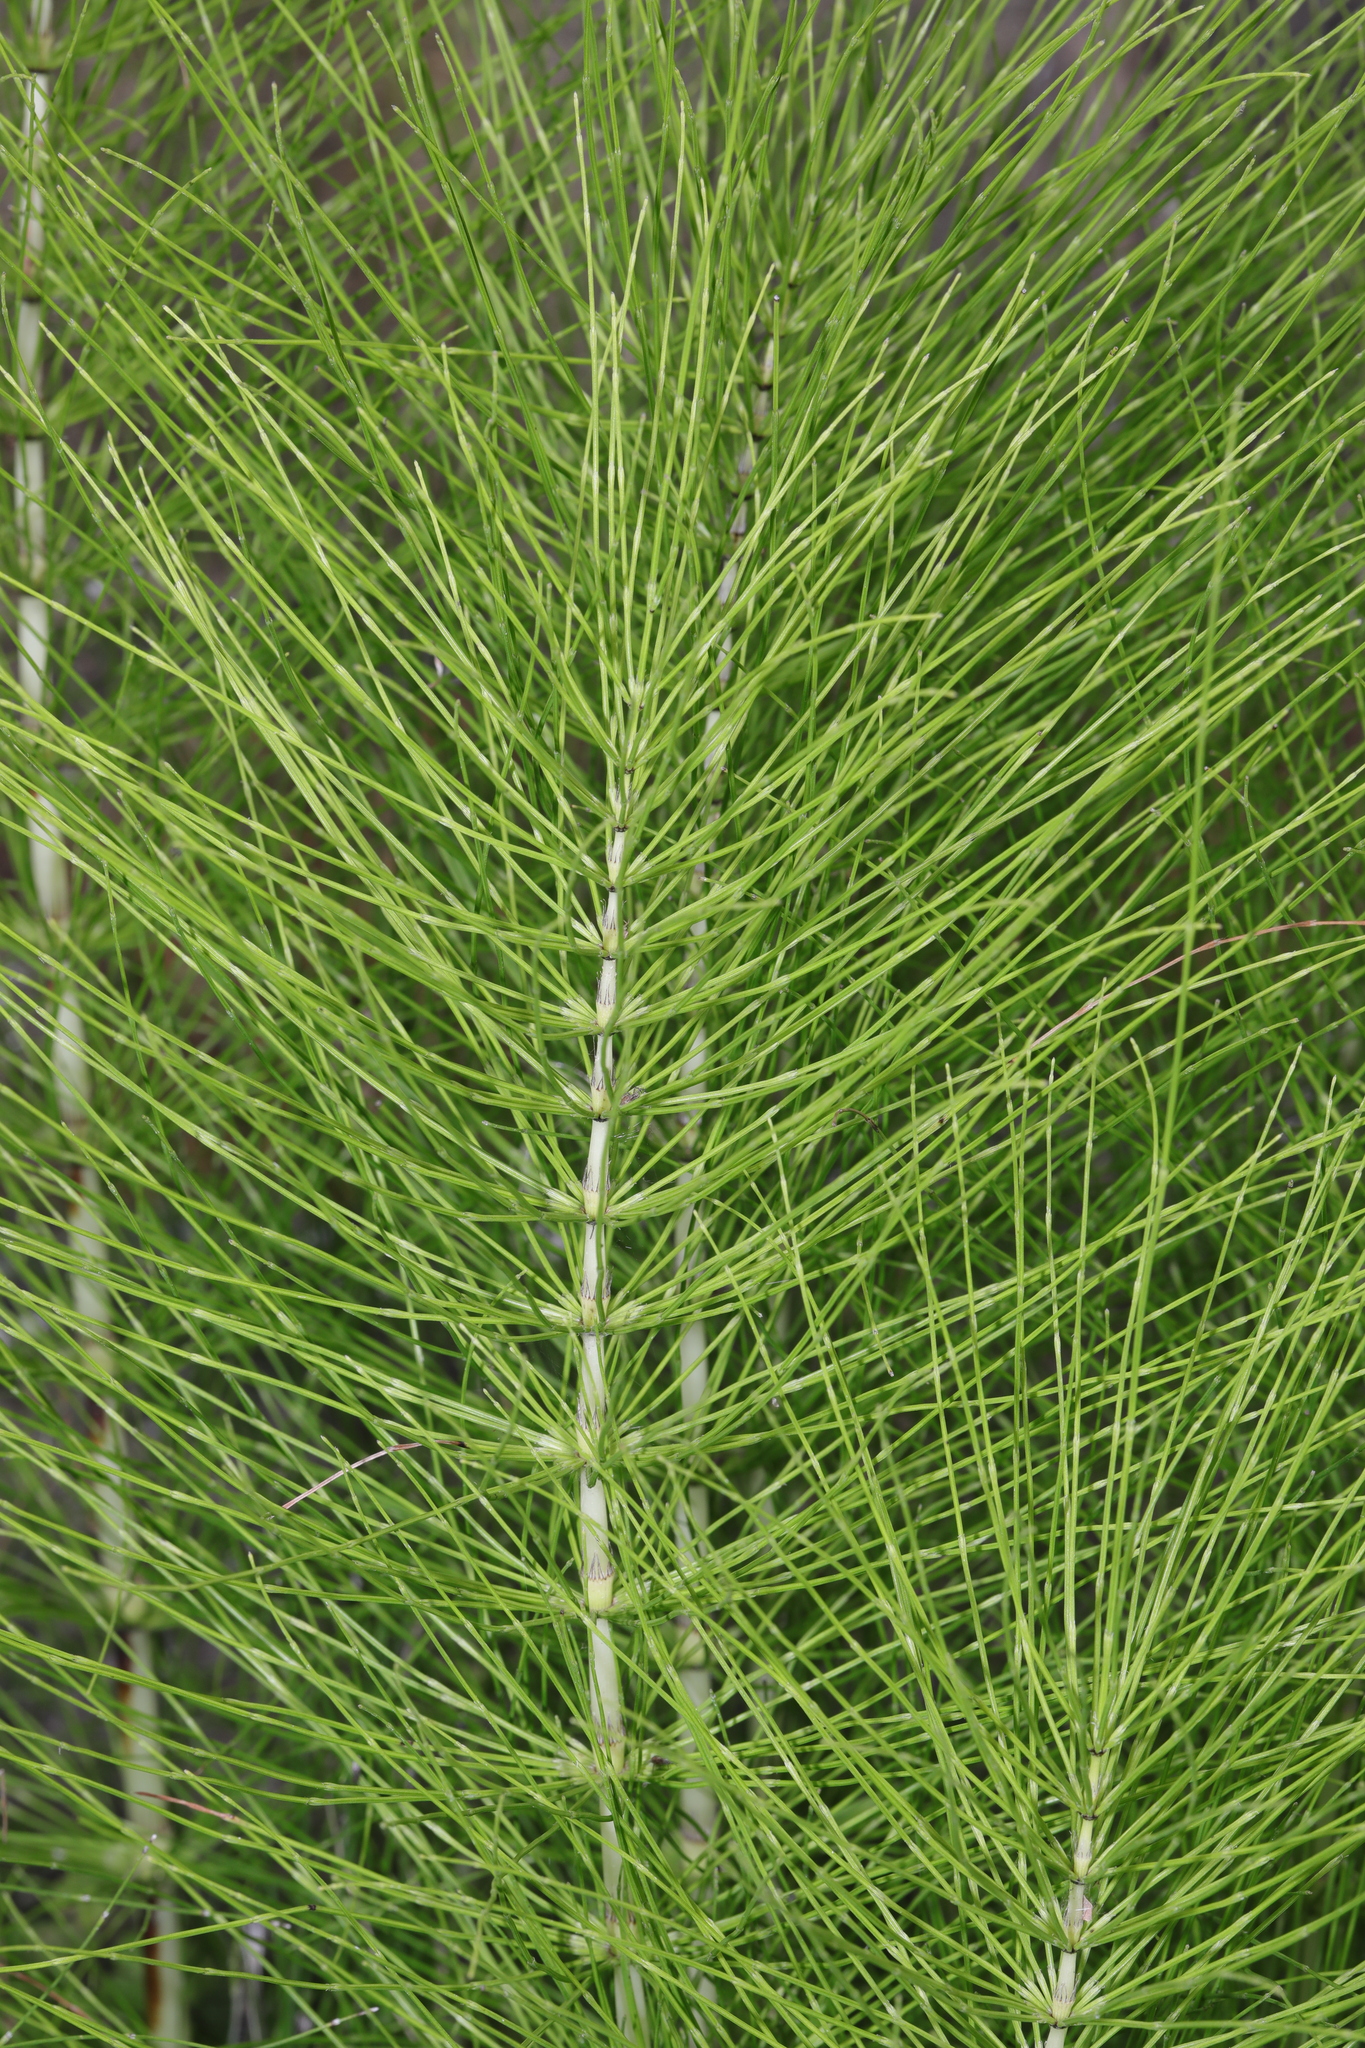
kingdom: Plantae
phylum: Tracheophyta
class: Polypodiopsida
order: Equisetales
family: Equisetaceae
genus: Equisetum
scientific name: Equisetum telmateia
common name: Great horsetail
